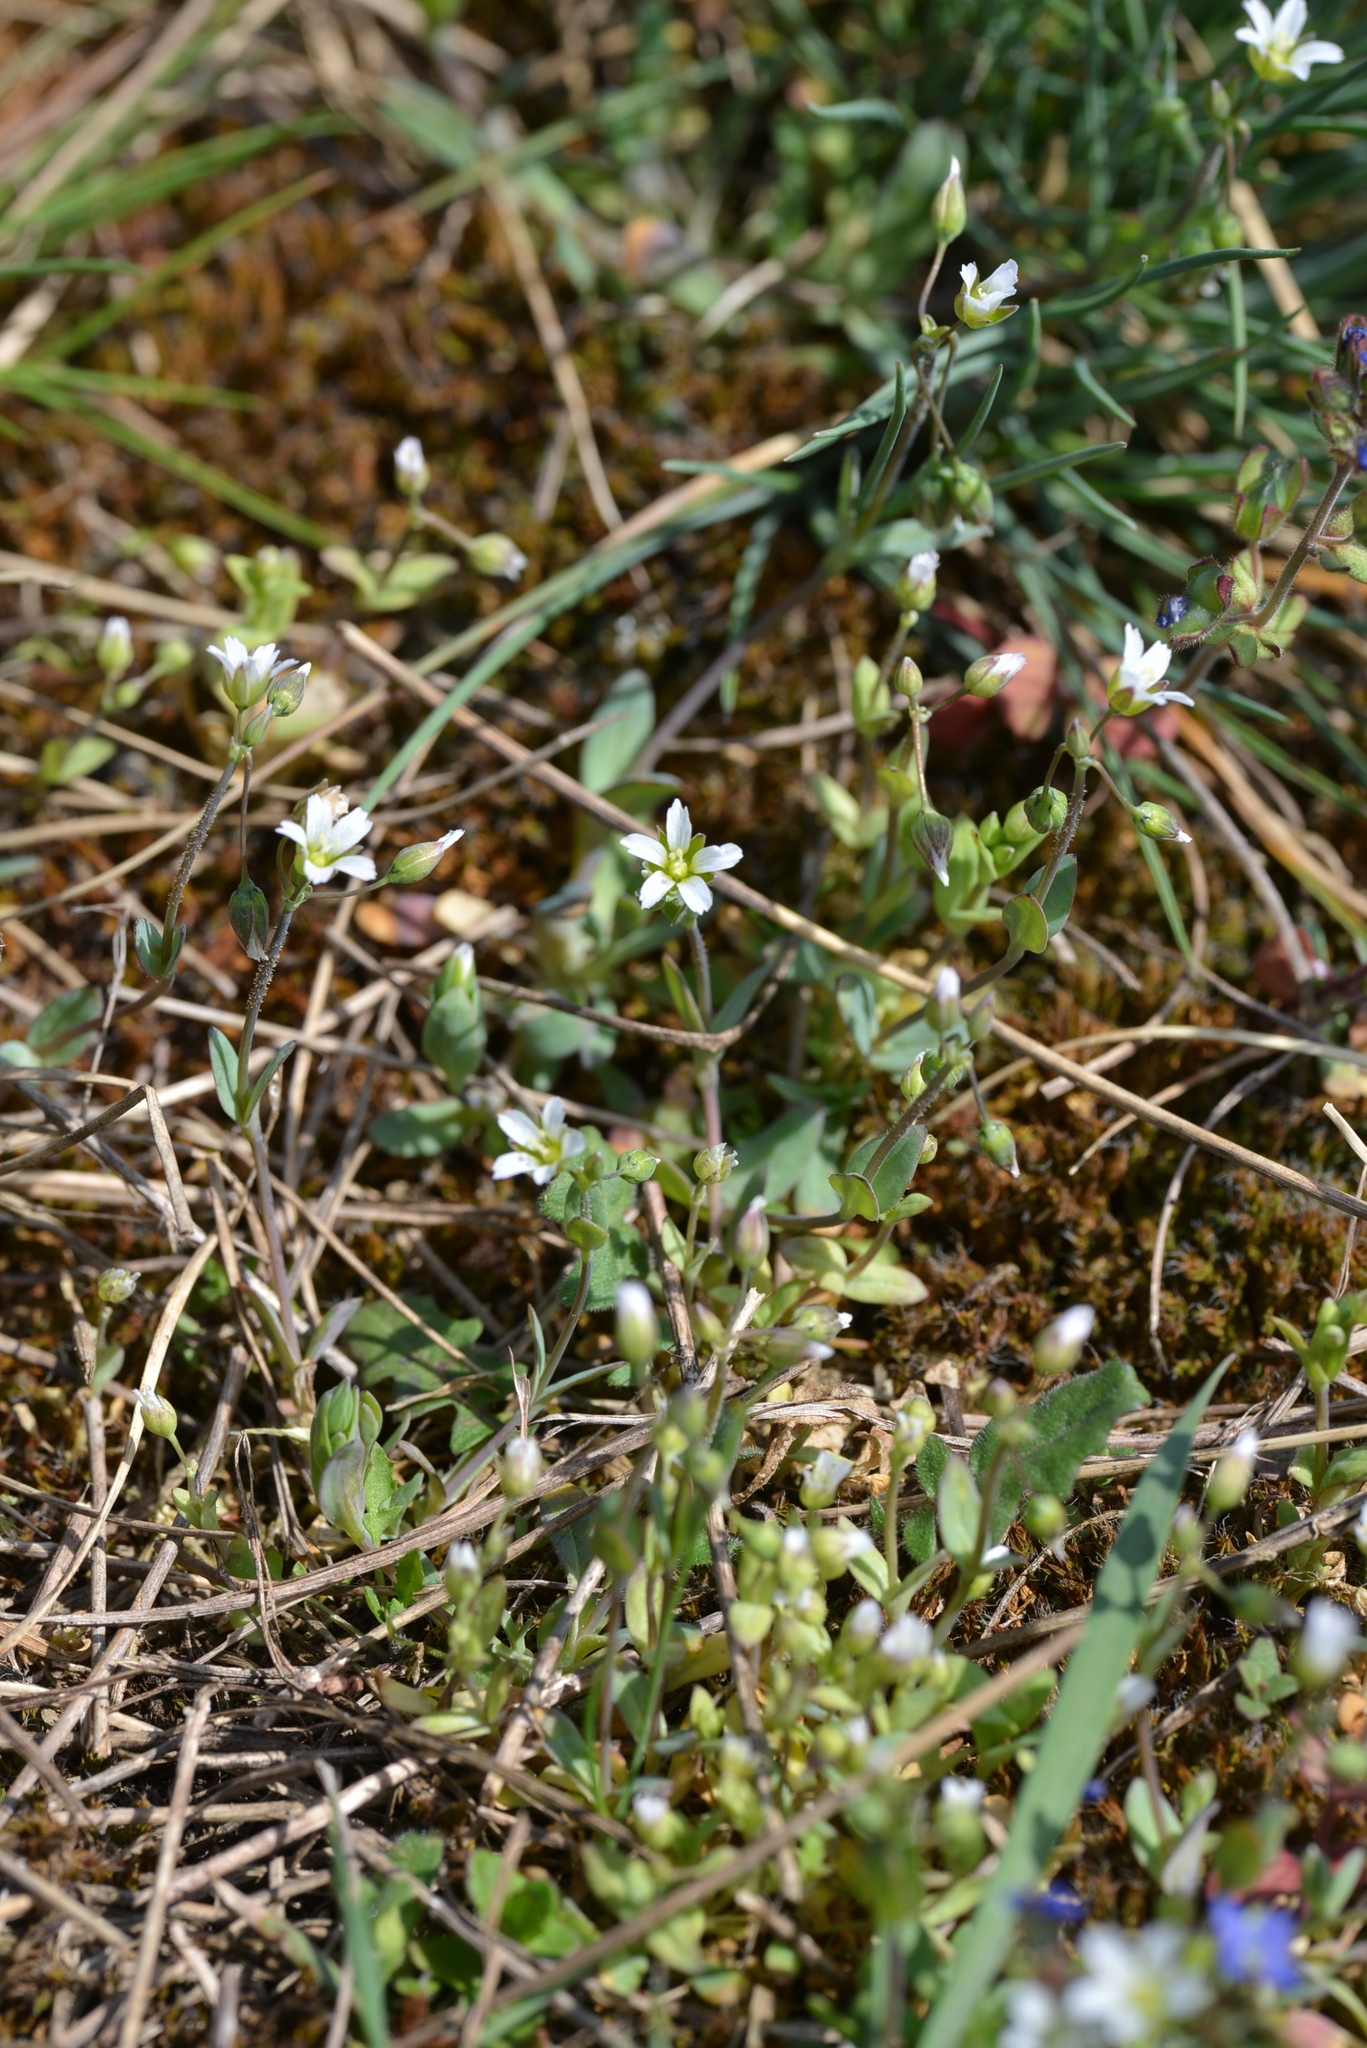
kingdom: Plantae
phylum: Tracheophyta
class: Magnoliopsida
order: Caryophyllales
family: Caryophyllaceae
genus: Holosteum
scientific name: Holosteum umbellatum
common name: Jagged chickweed
